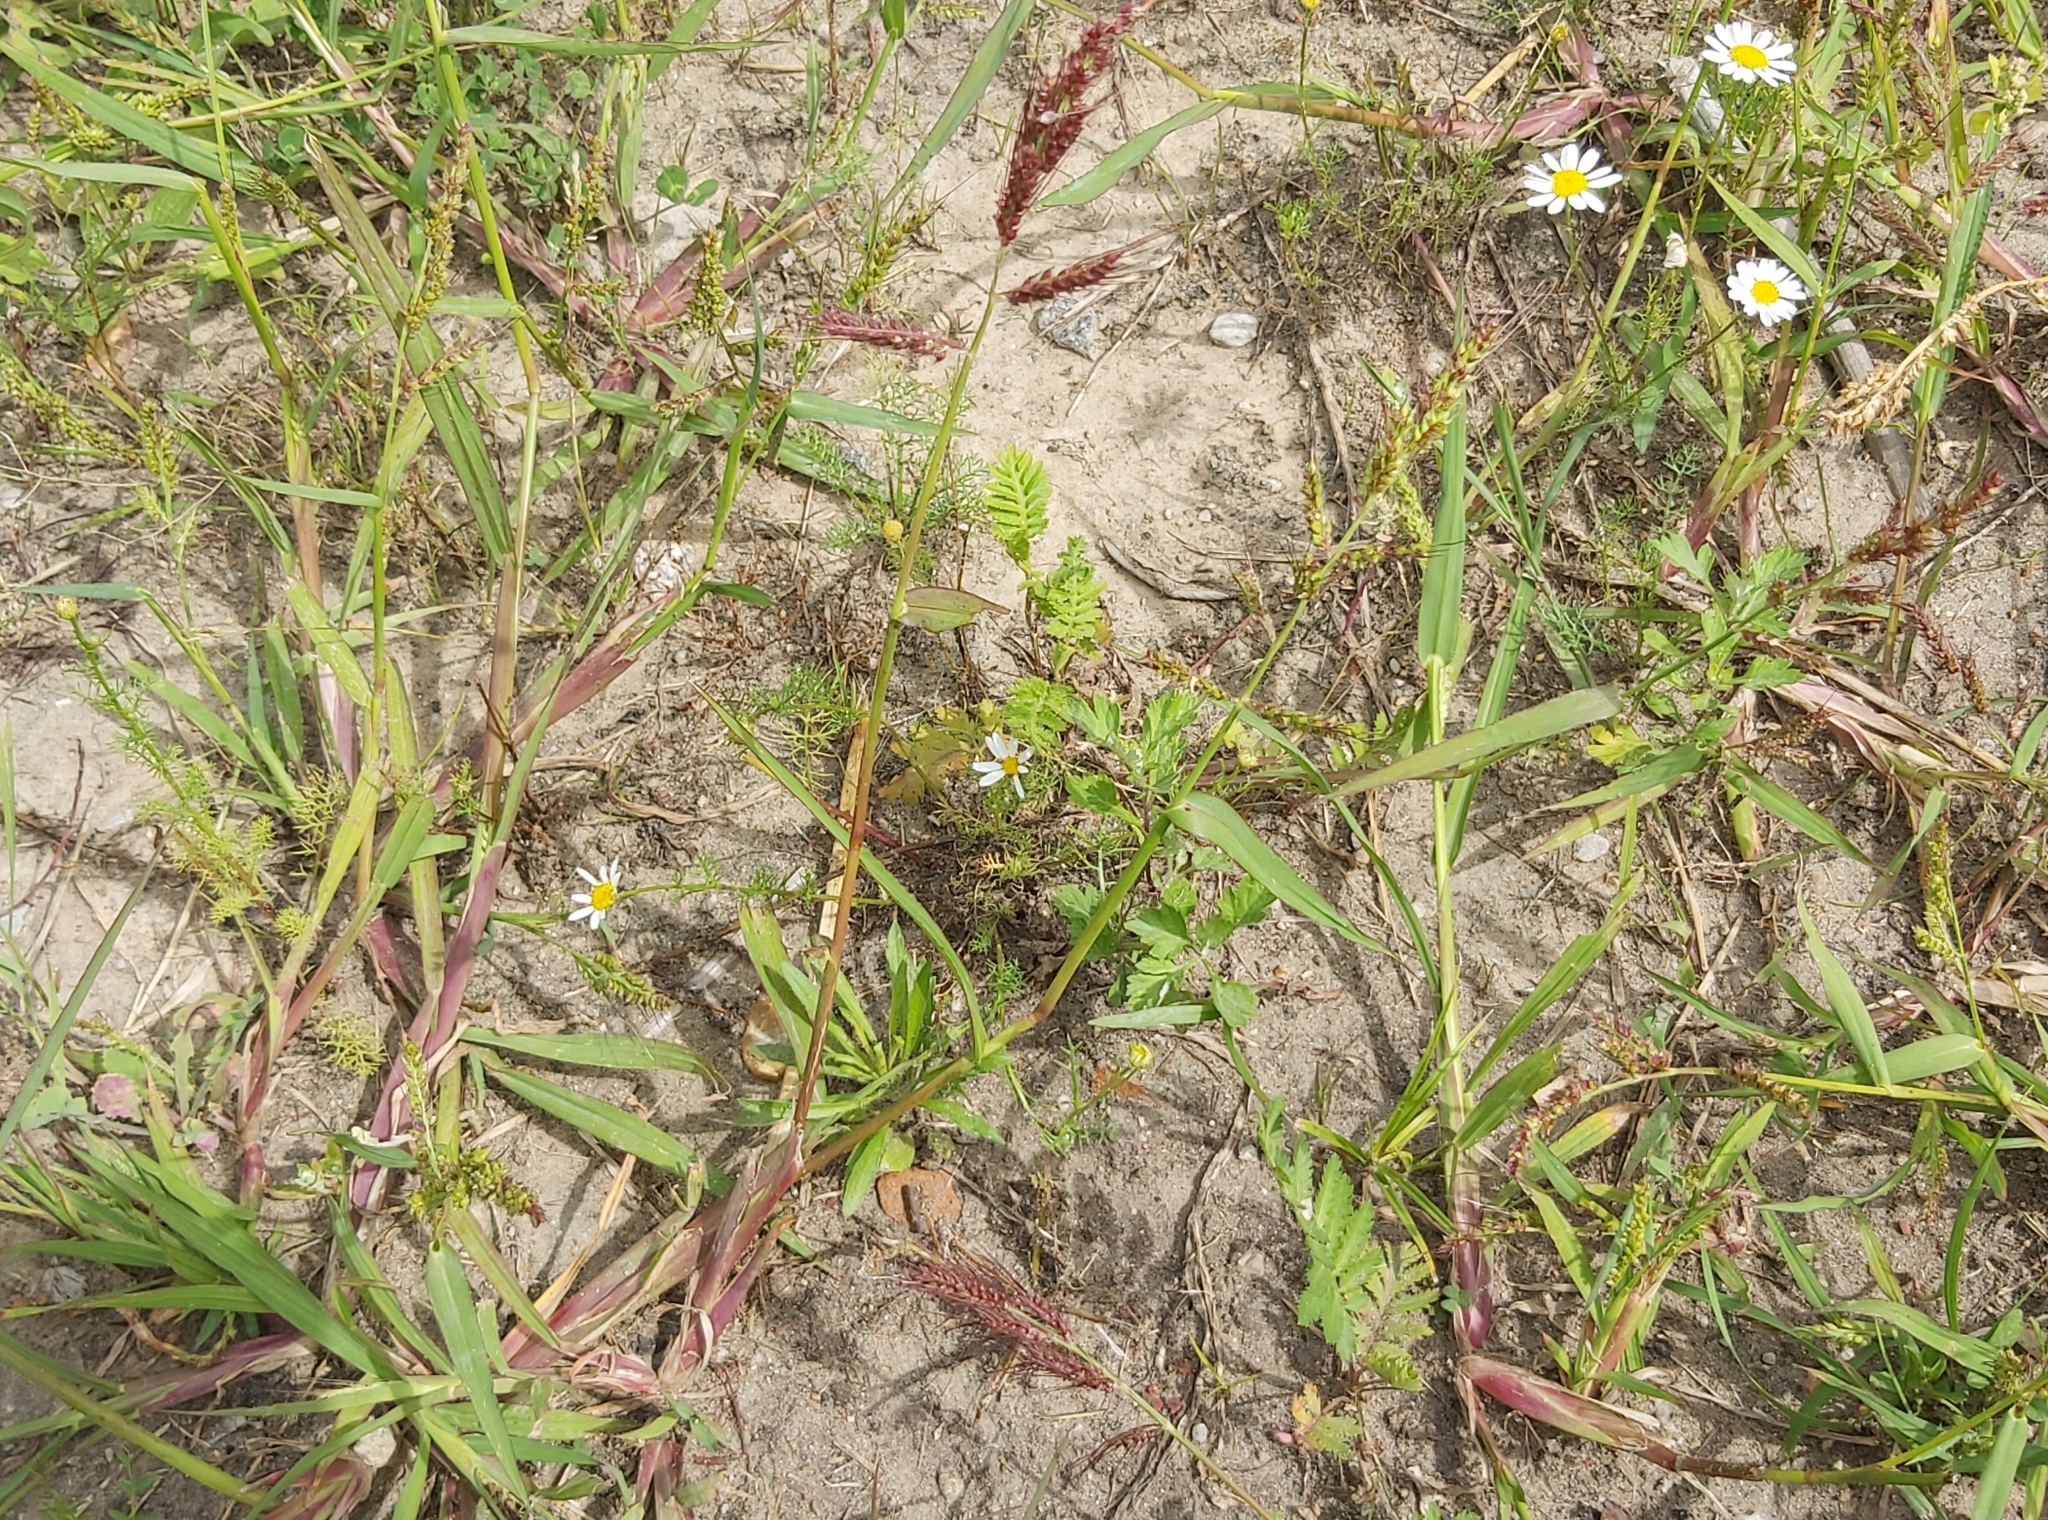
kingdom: Plantae
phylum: Tracheophyta
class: Liliopsida
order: Poales
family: Poaceae
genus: Echinochloa
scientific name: Echinochloa crus-galli
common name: Cockspur
